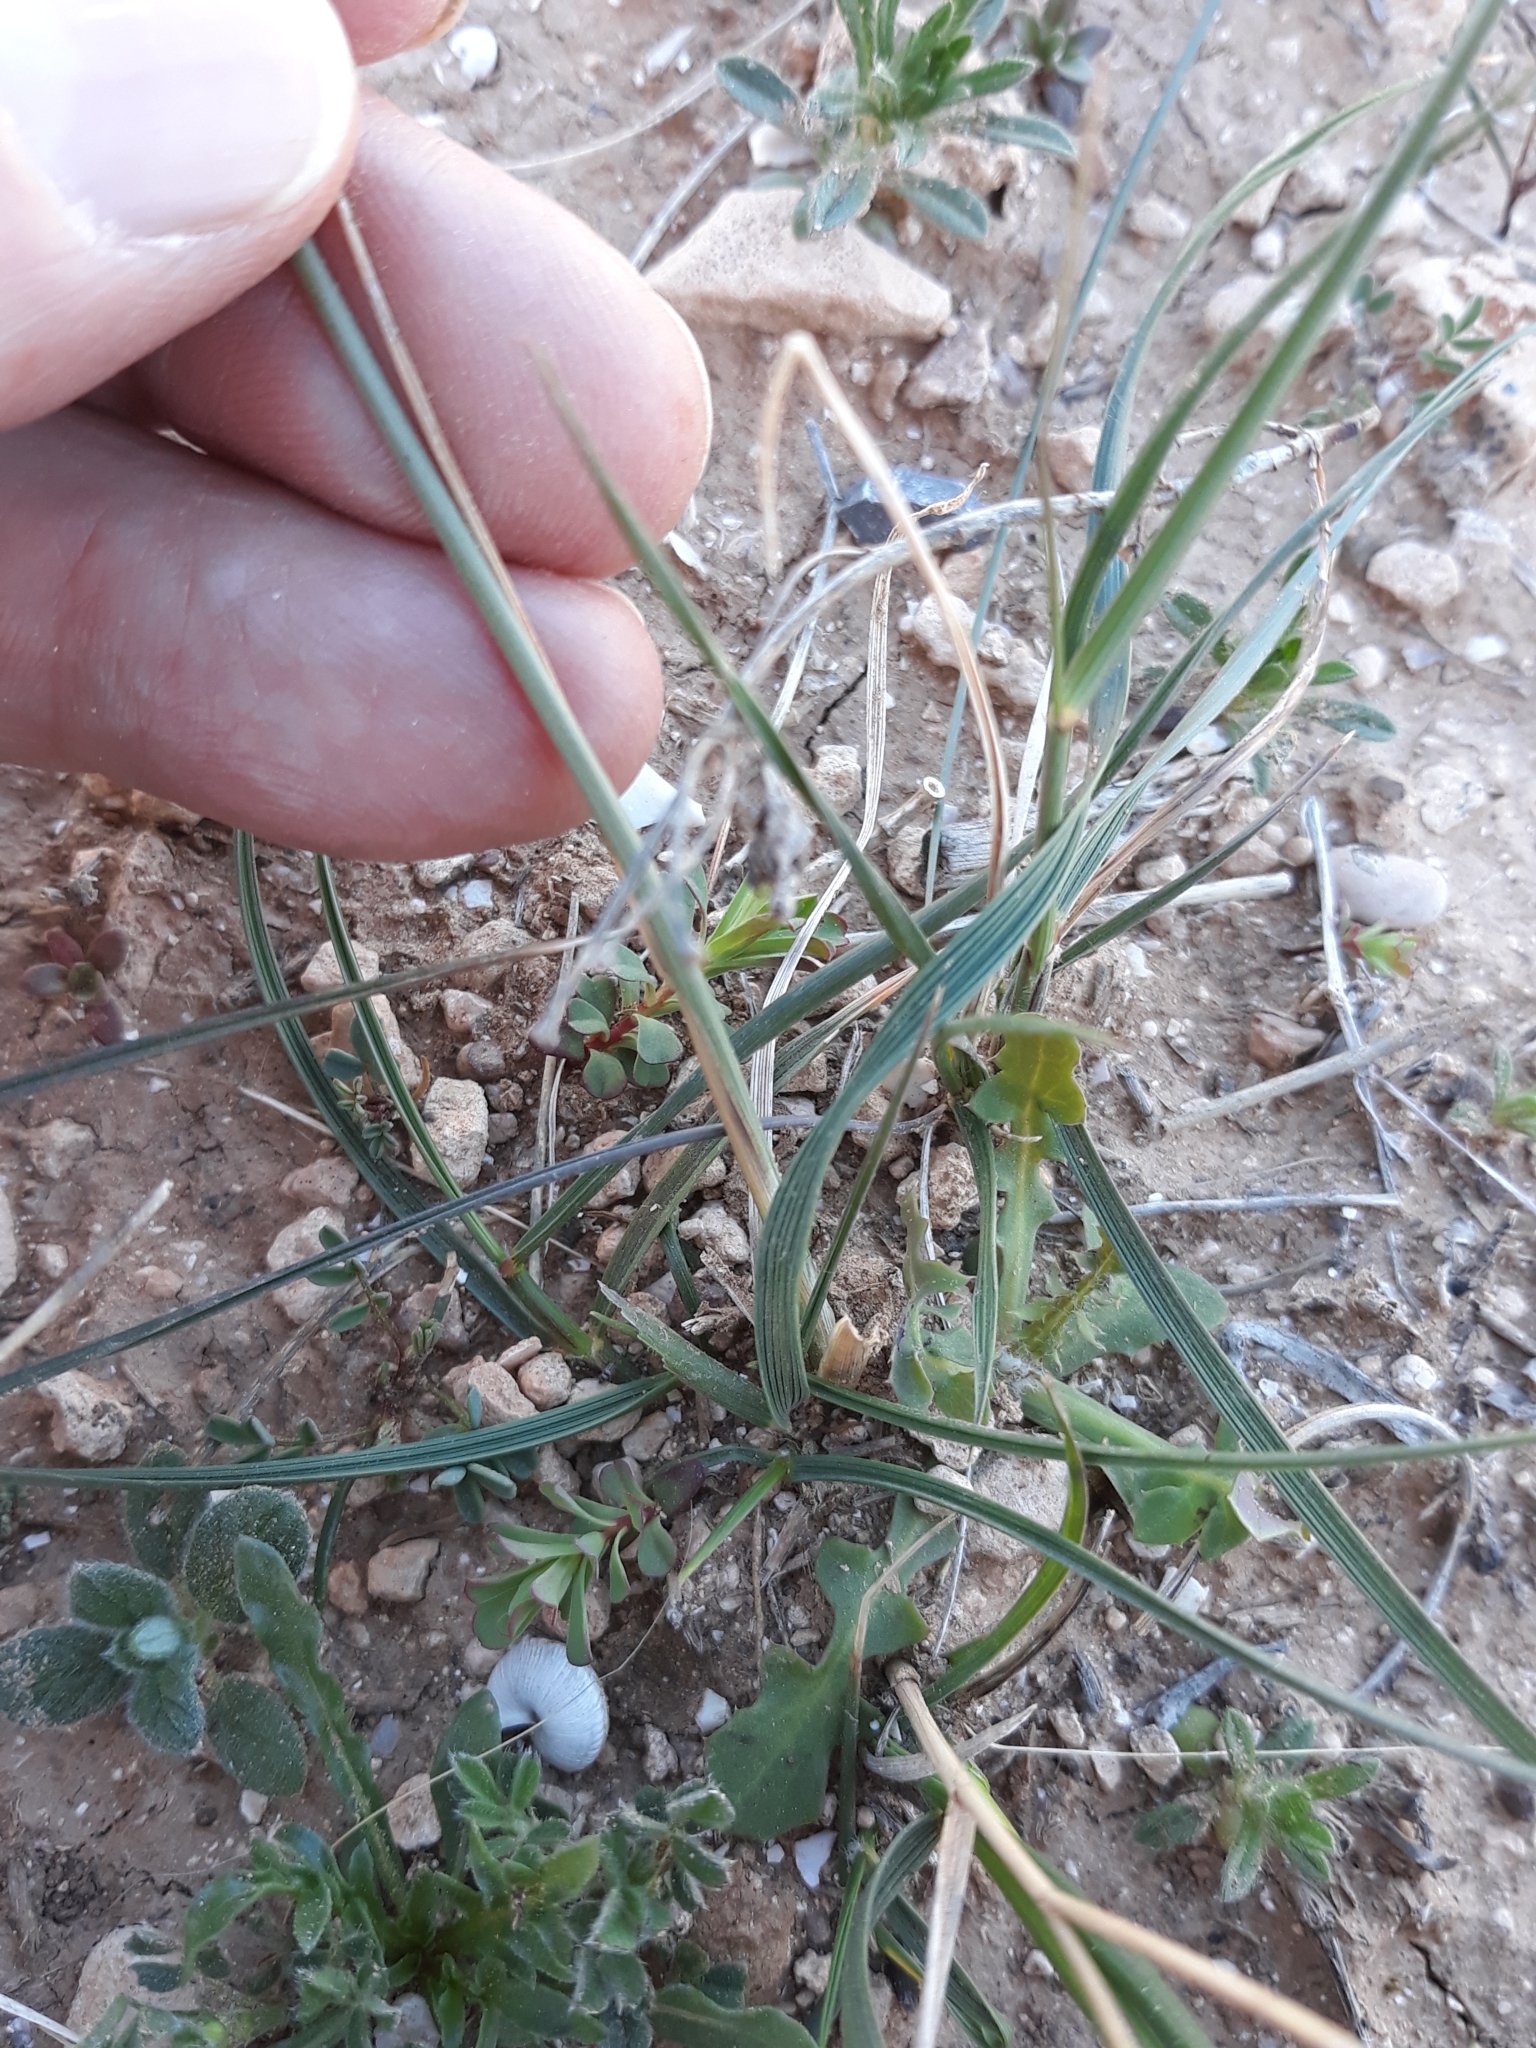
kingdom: Plantae
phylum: Tracheophyta
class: Liliopsida
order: Poales
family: Poaceae
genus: Achnatherum
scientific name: Achnatherum parviflorum
